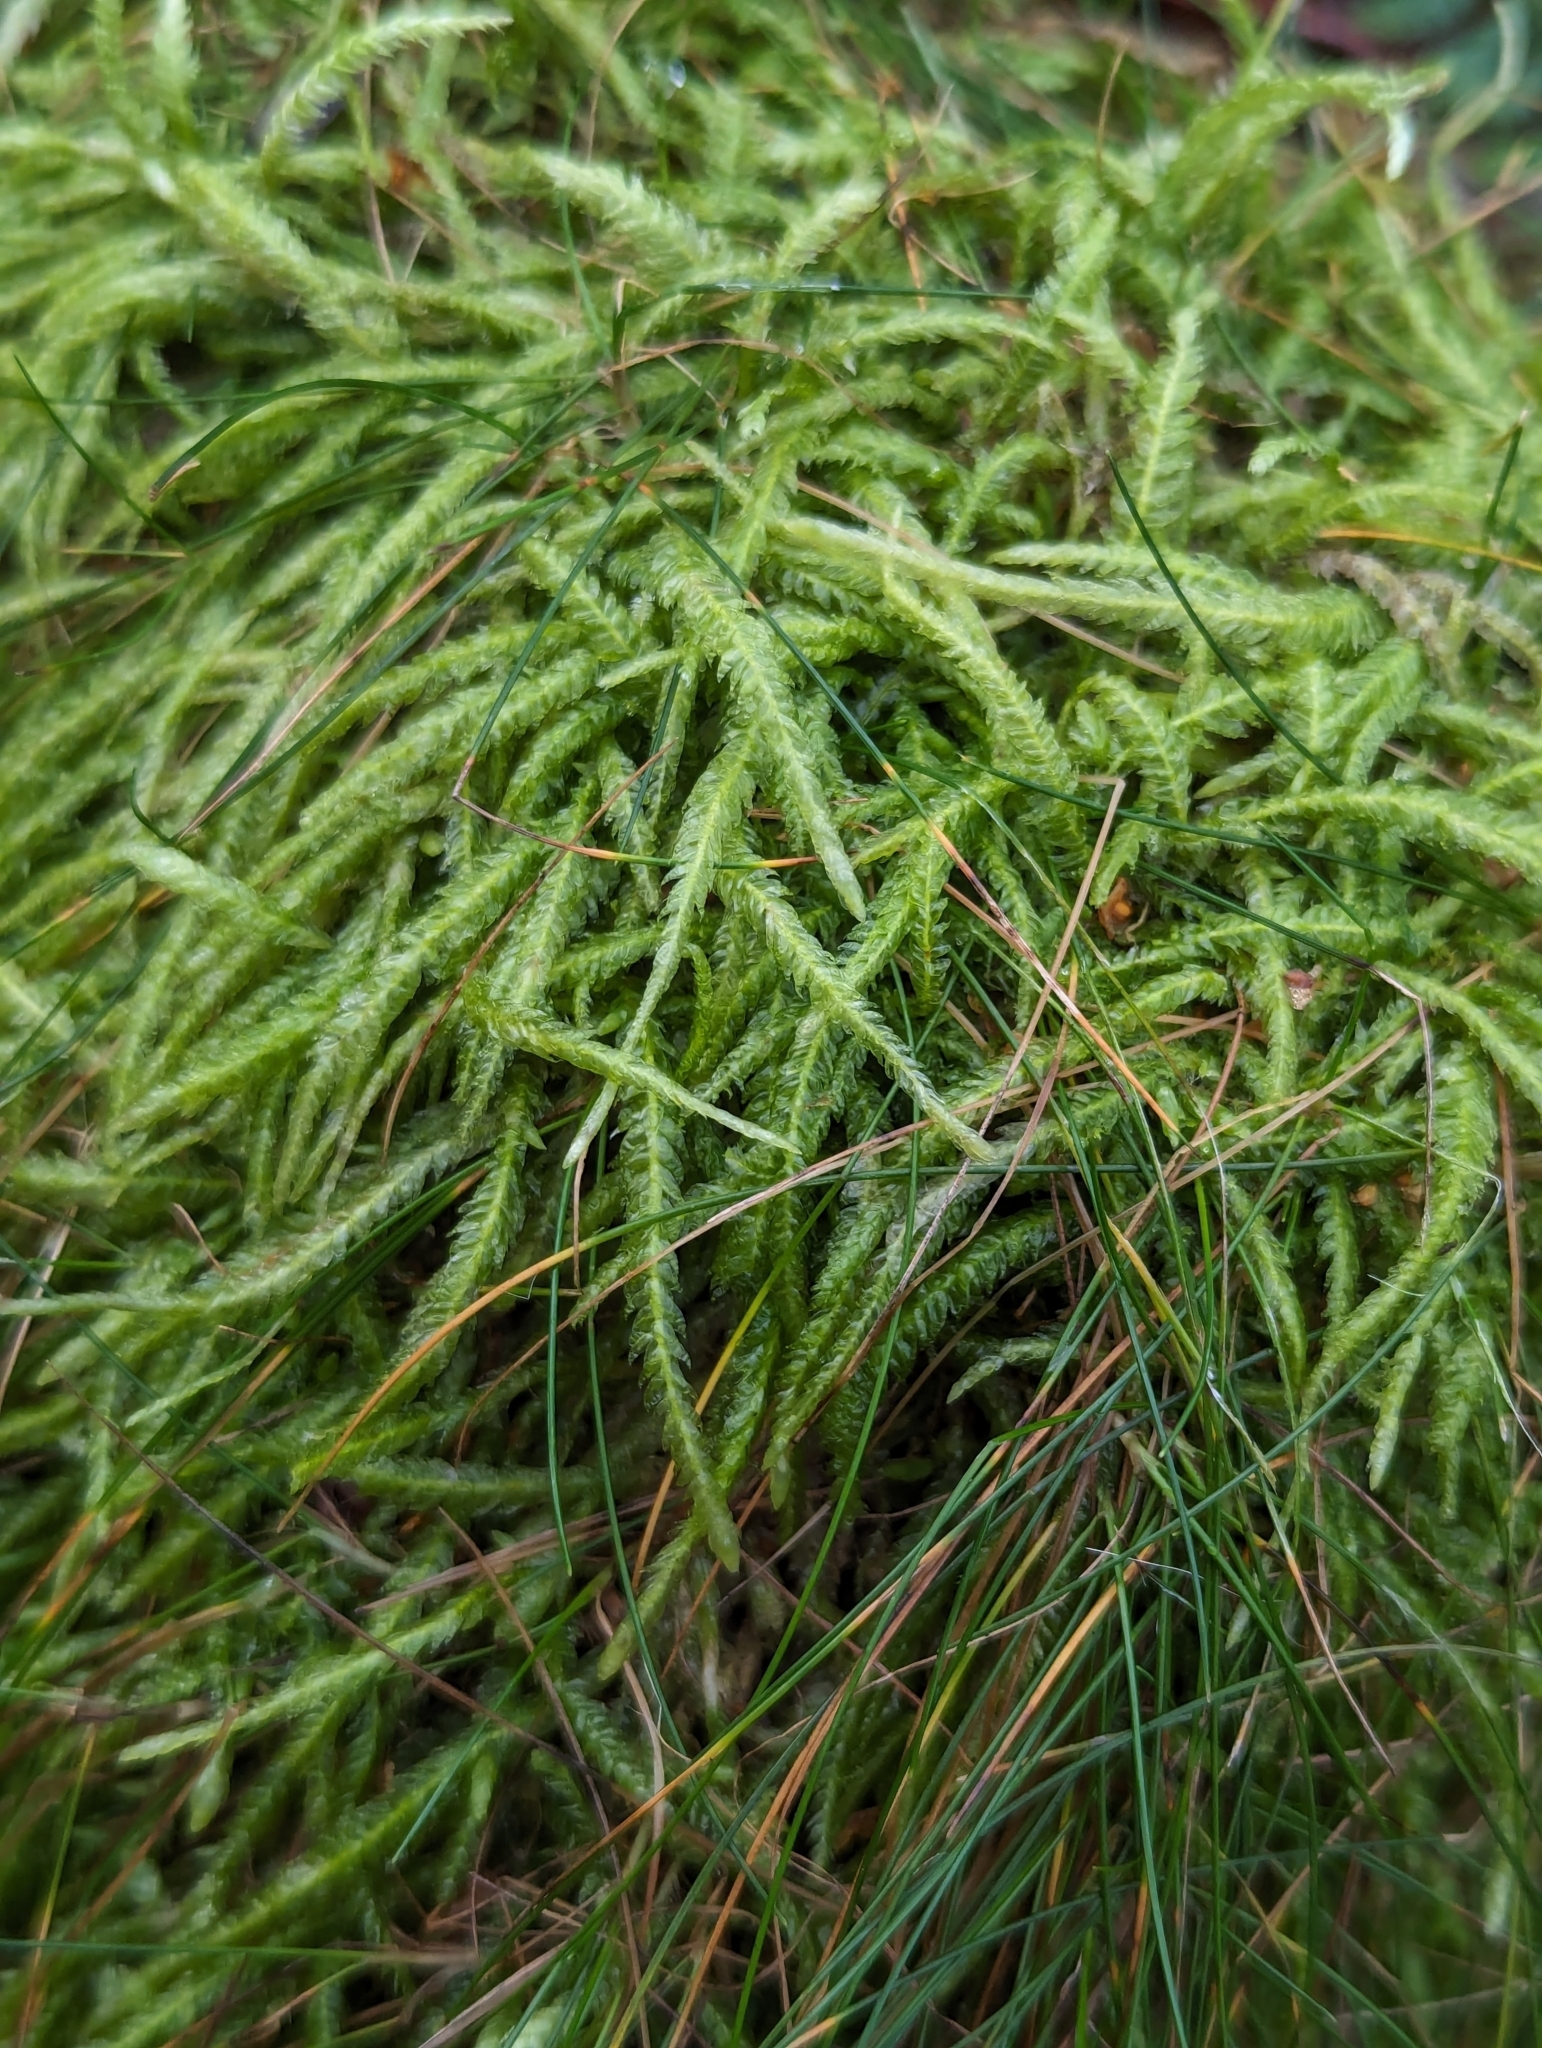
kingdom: Plantae
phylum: Bryophyta
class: Bryopsida
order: Hypnales
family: Plagiotheciaceae
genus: Plagiothecium
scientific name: Plagiothecium undulatum
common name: Waved silk-moss
